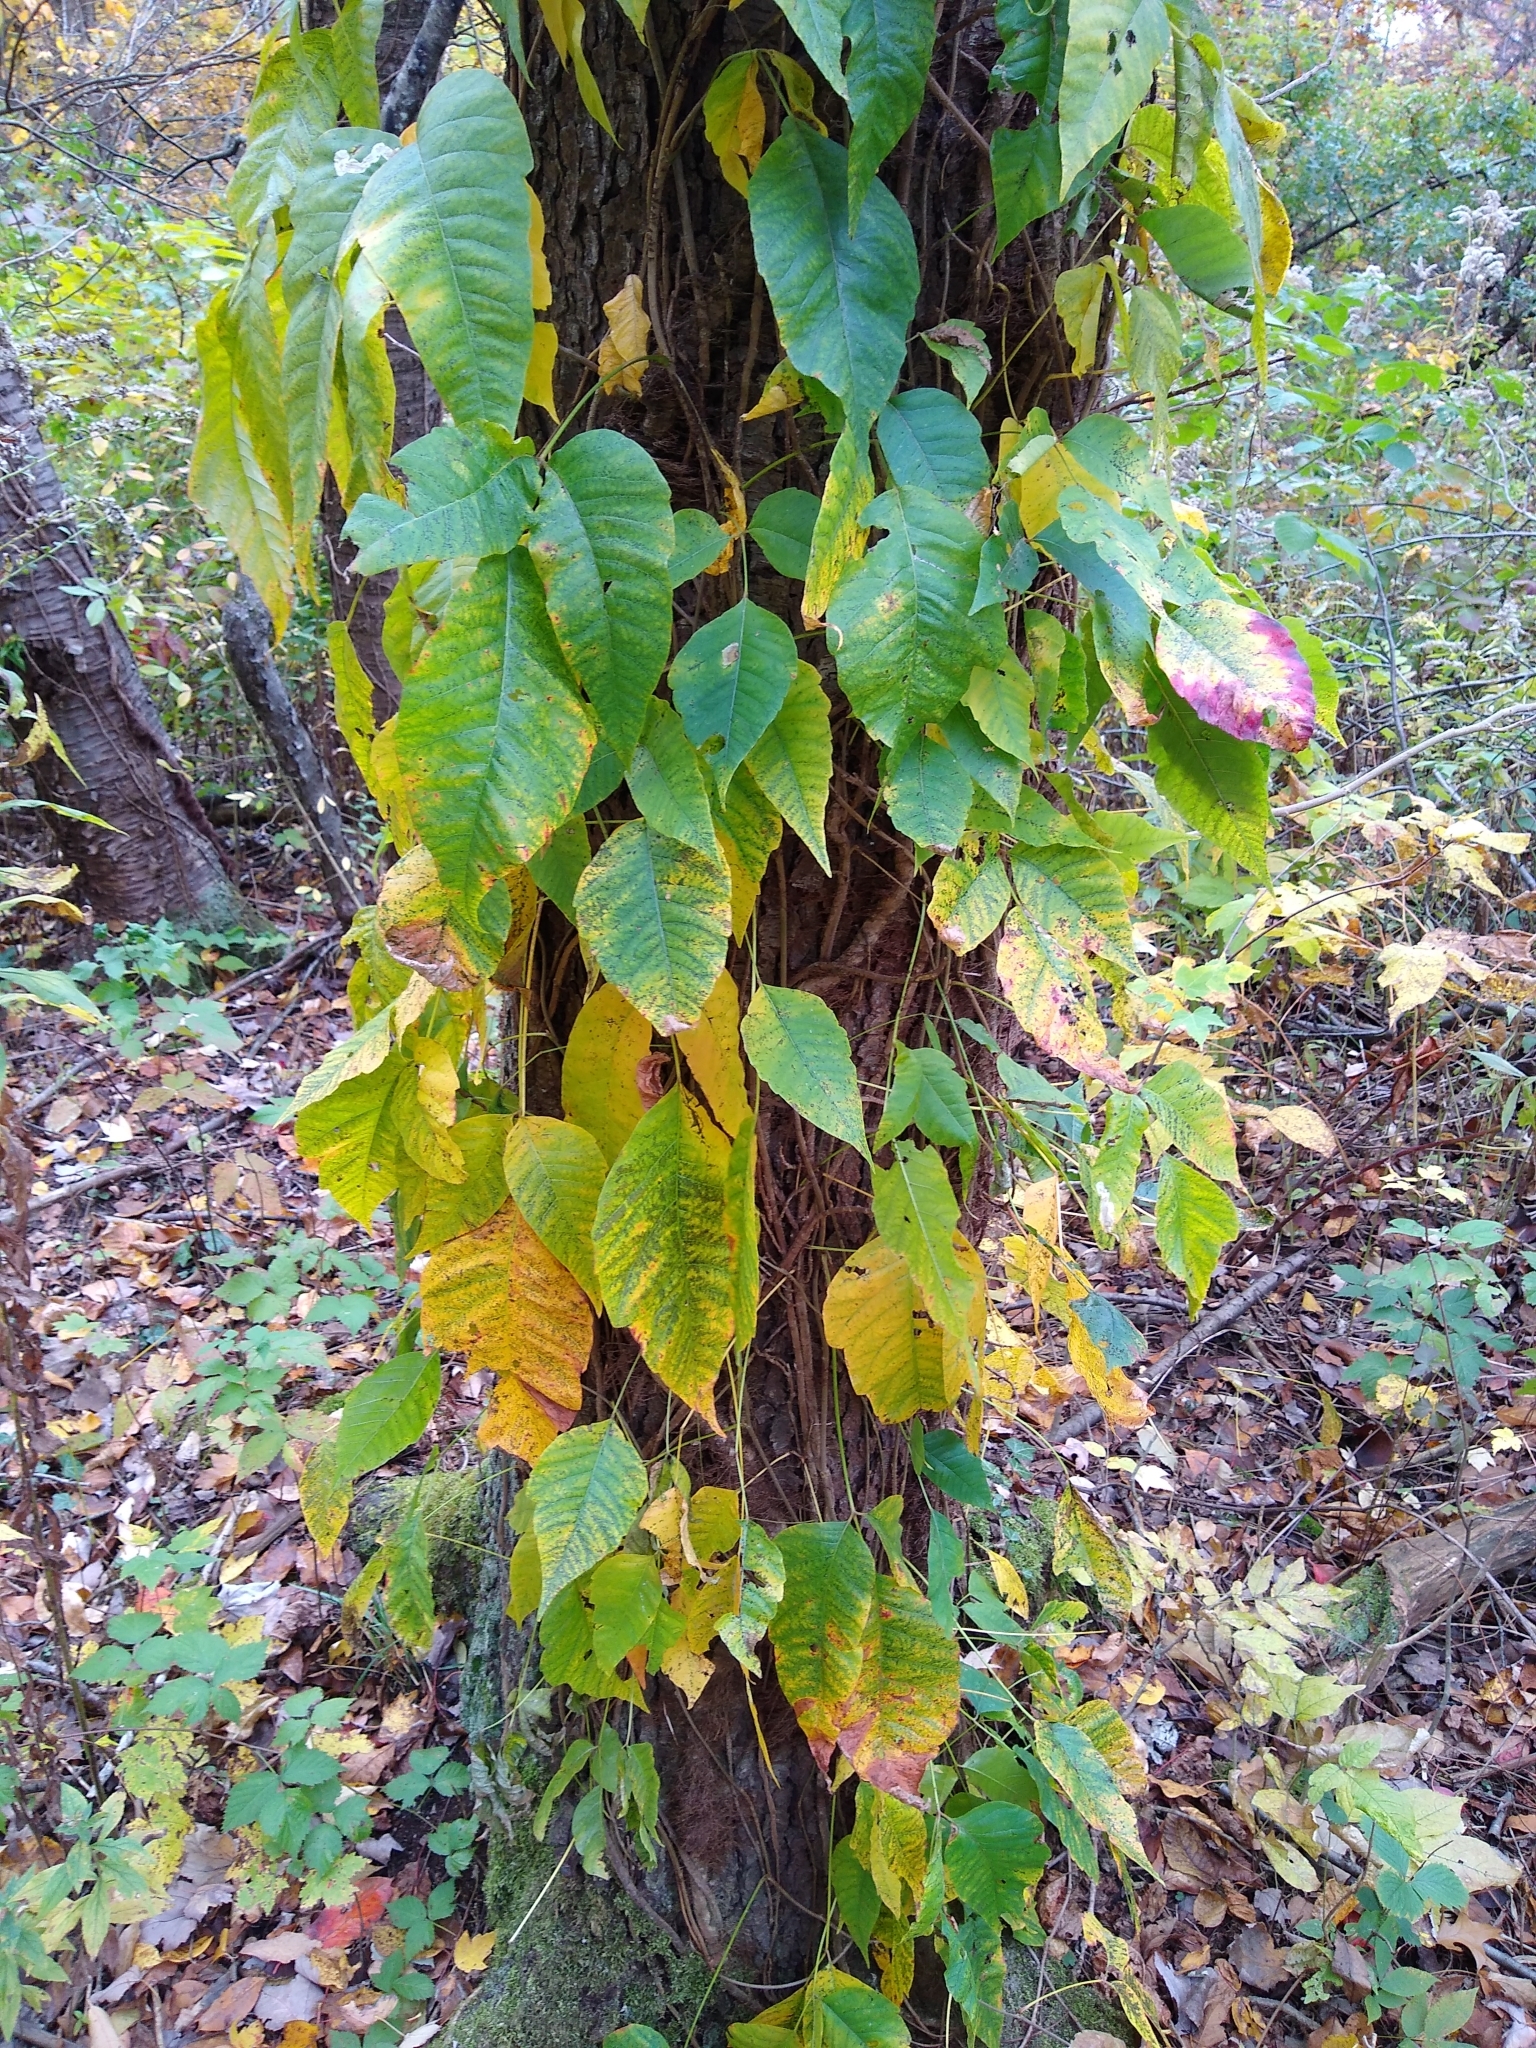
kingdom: Plantae
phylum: Tracheophyta
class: Magnoliopsida
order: Sapindales
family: Anacardiaceae
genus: Toxicodendron
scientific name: Toxicodendron radicans
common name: Poison ivy
